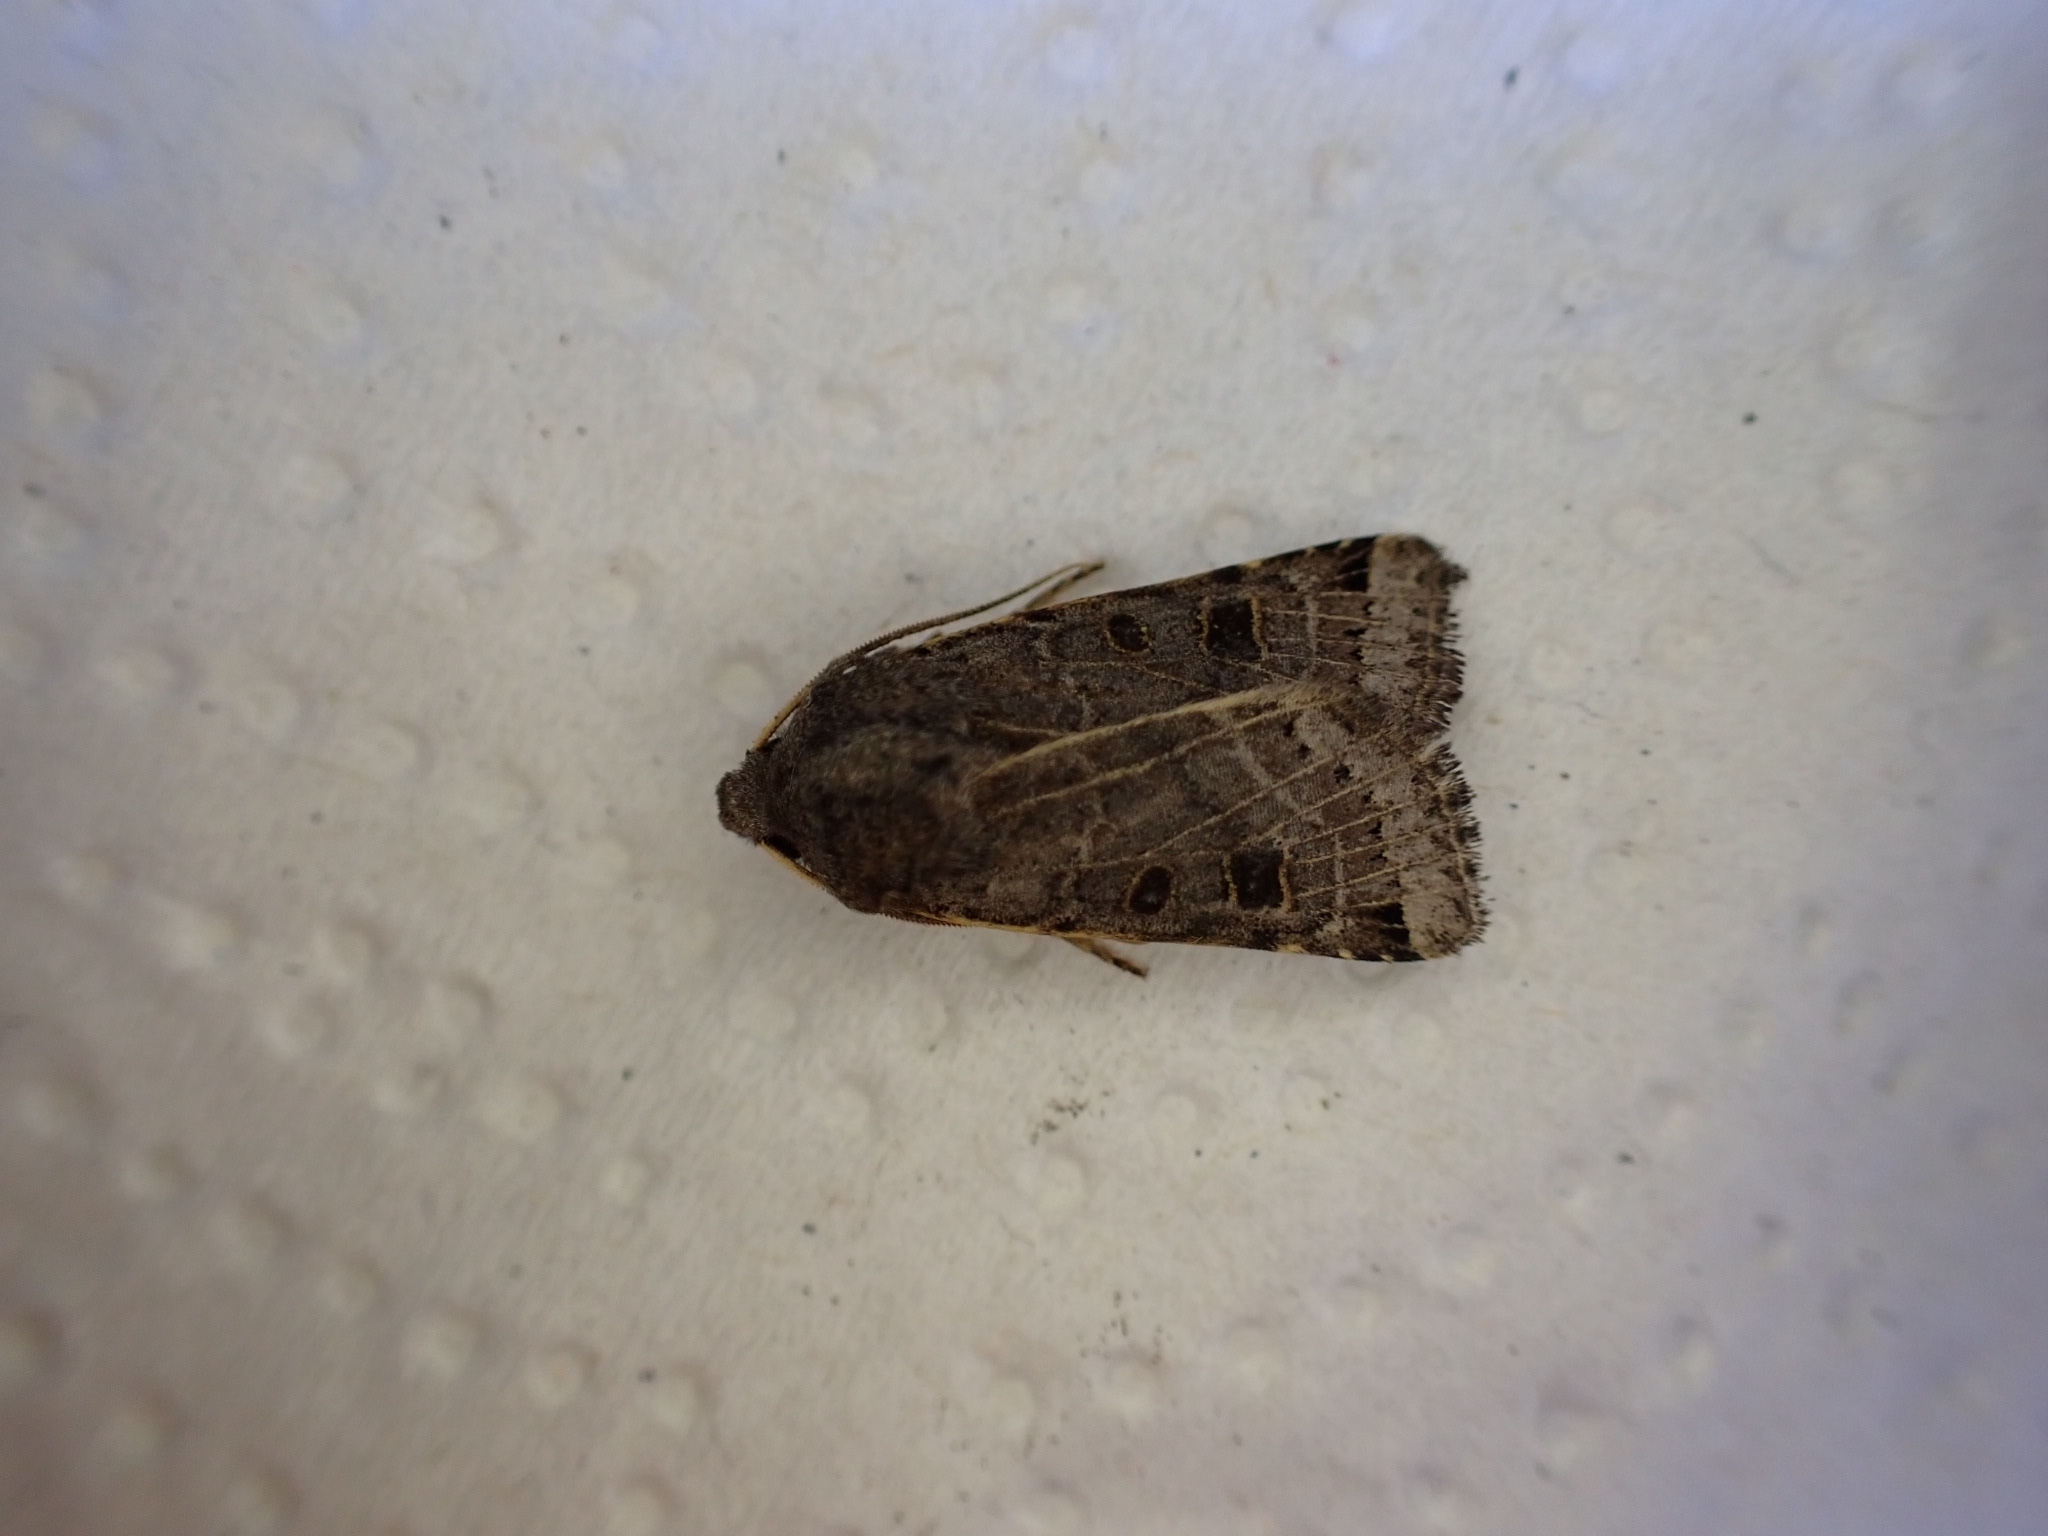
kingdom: Animalia
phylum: Arthropoda
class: Insecta
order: Lepidoptera
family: Noctuidae
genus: Agrochola
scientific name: Agrochola lunosa
